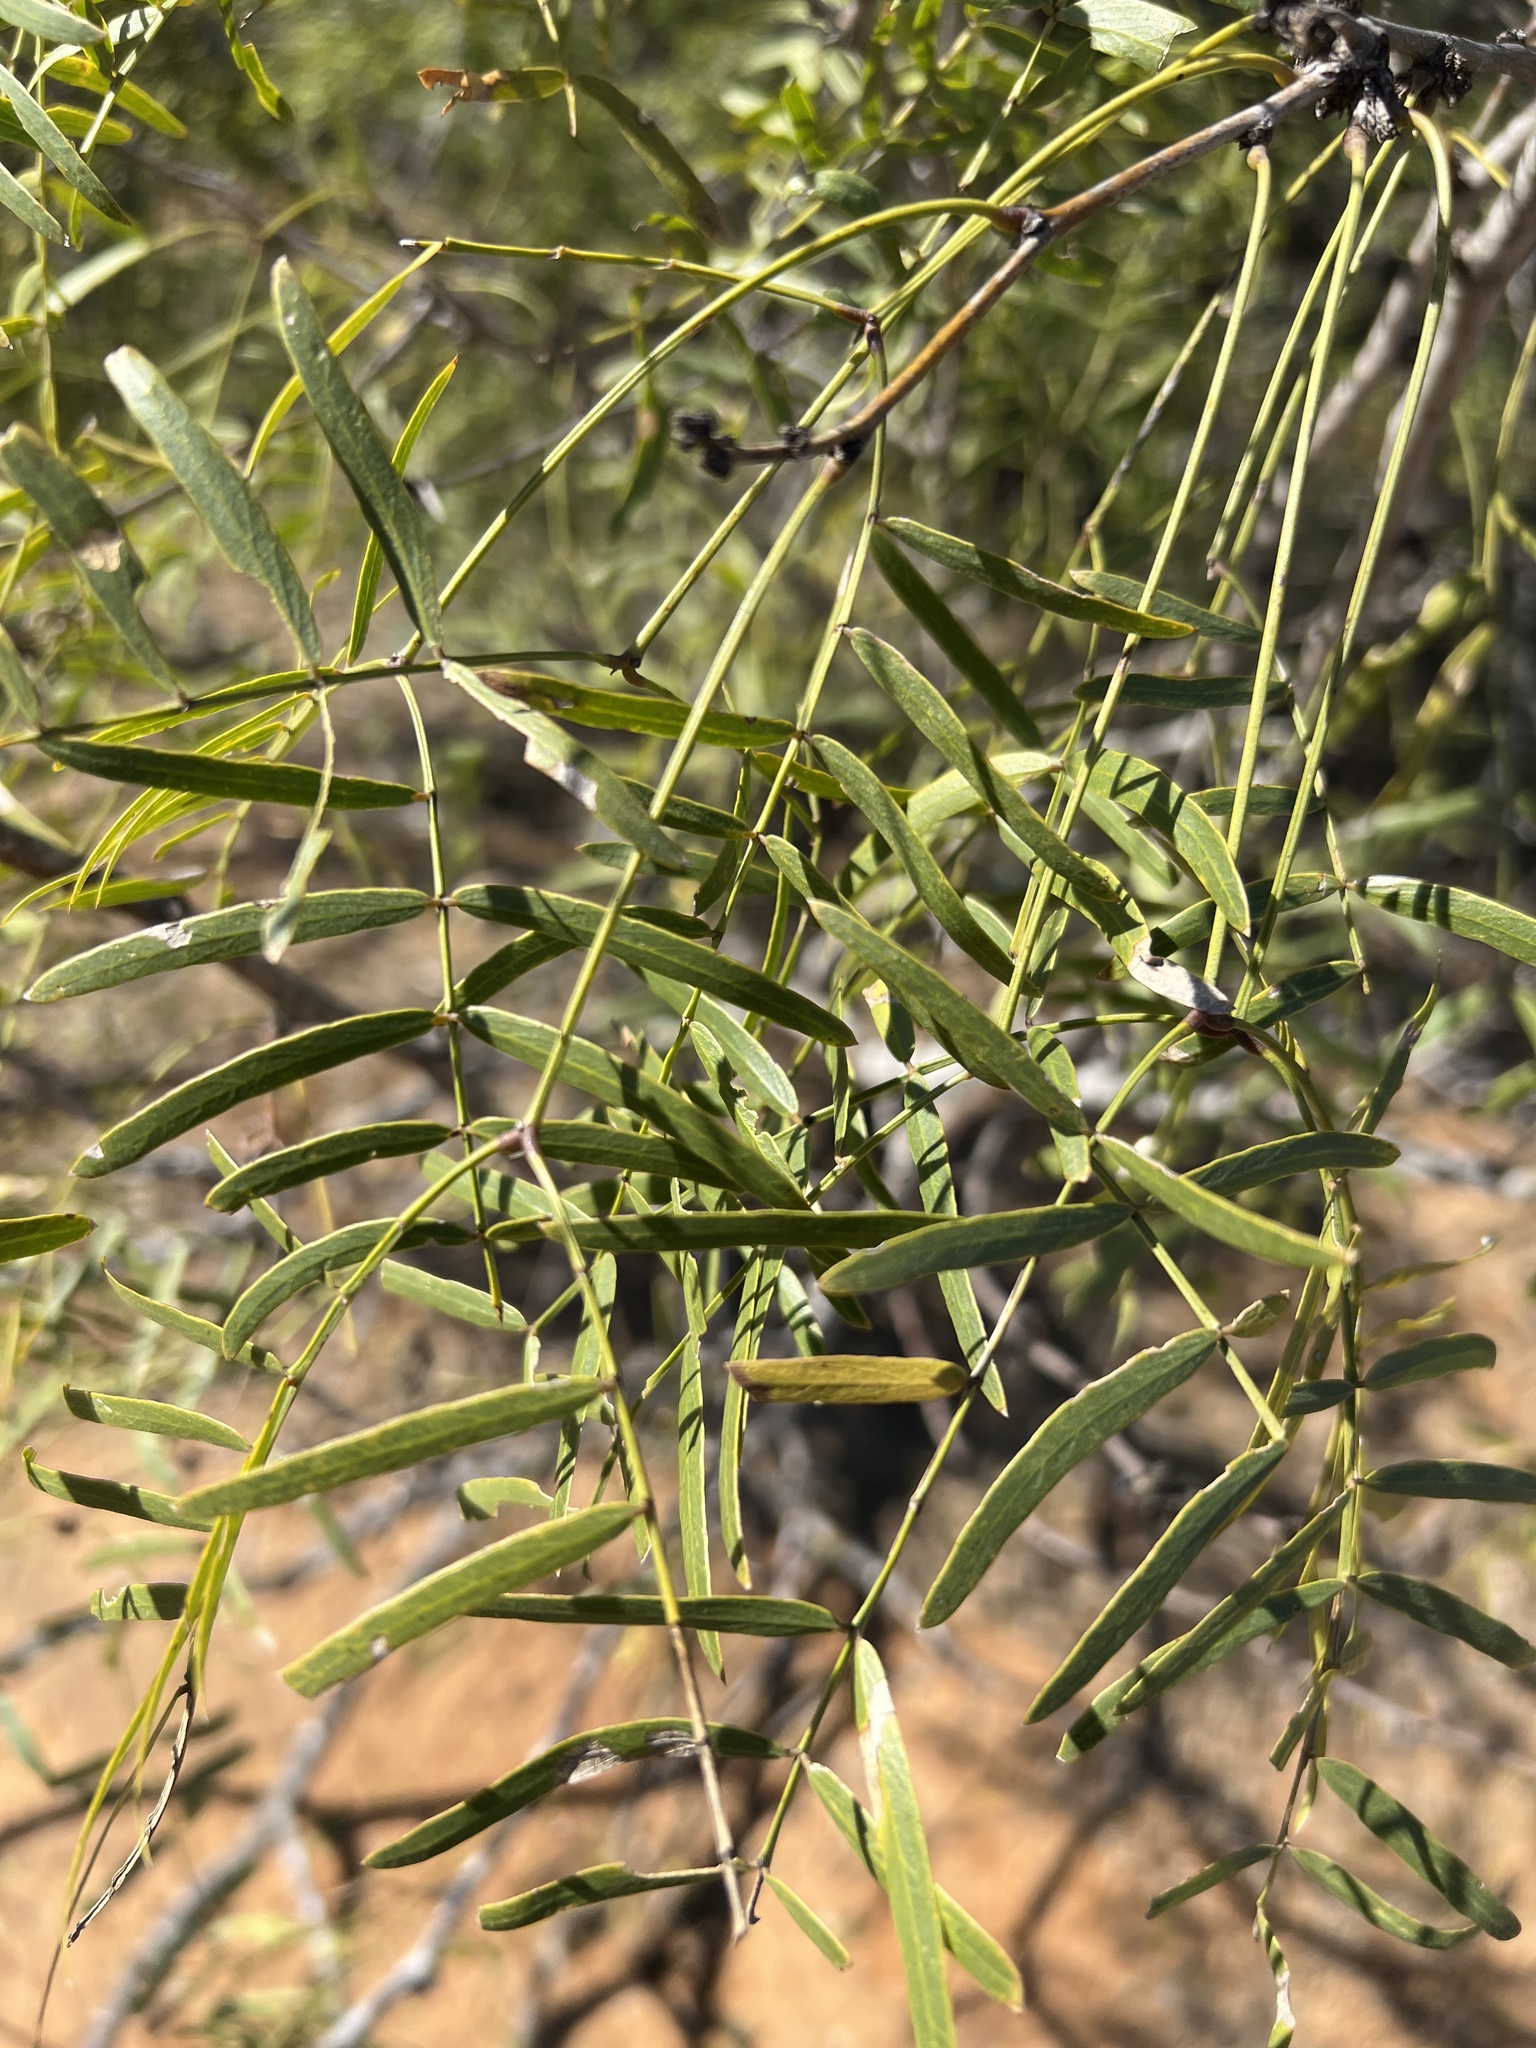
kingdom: Plantae
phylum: Tracheophyta
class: Magnoliopsida
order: Fabales
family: Fabaceae
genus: Prosopis
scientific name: Prosopis glandulosa
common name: Honey mesquite
